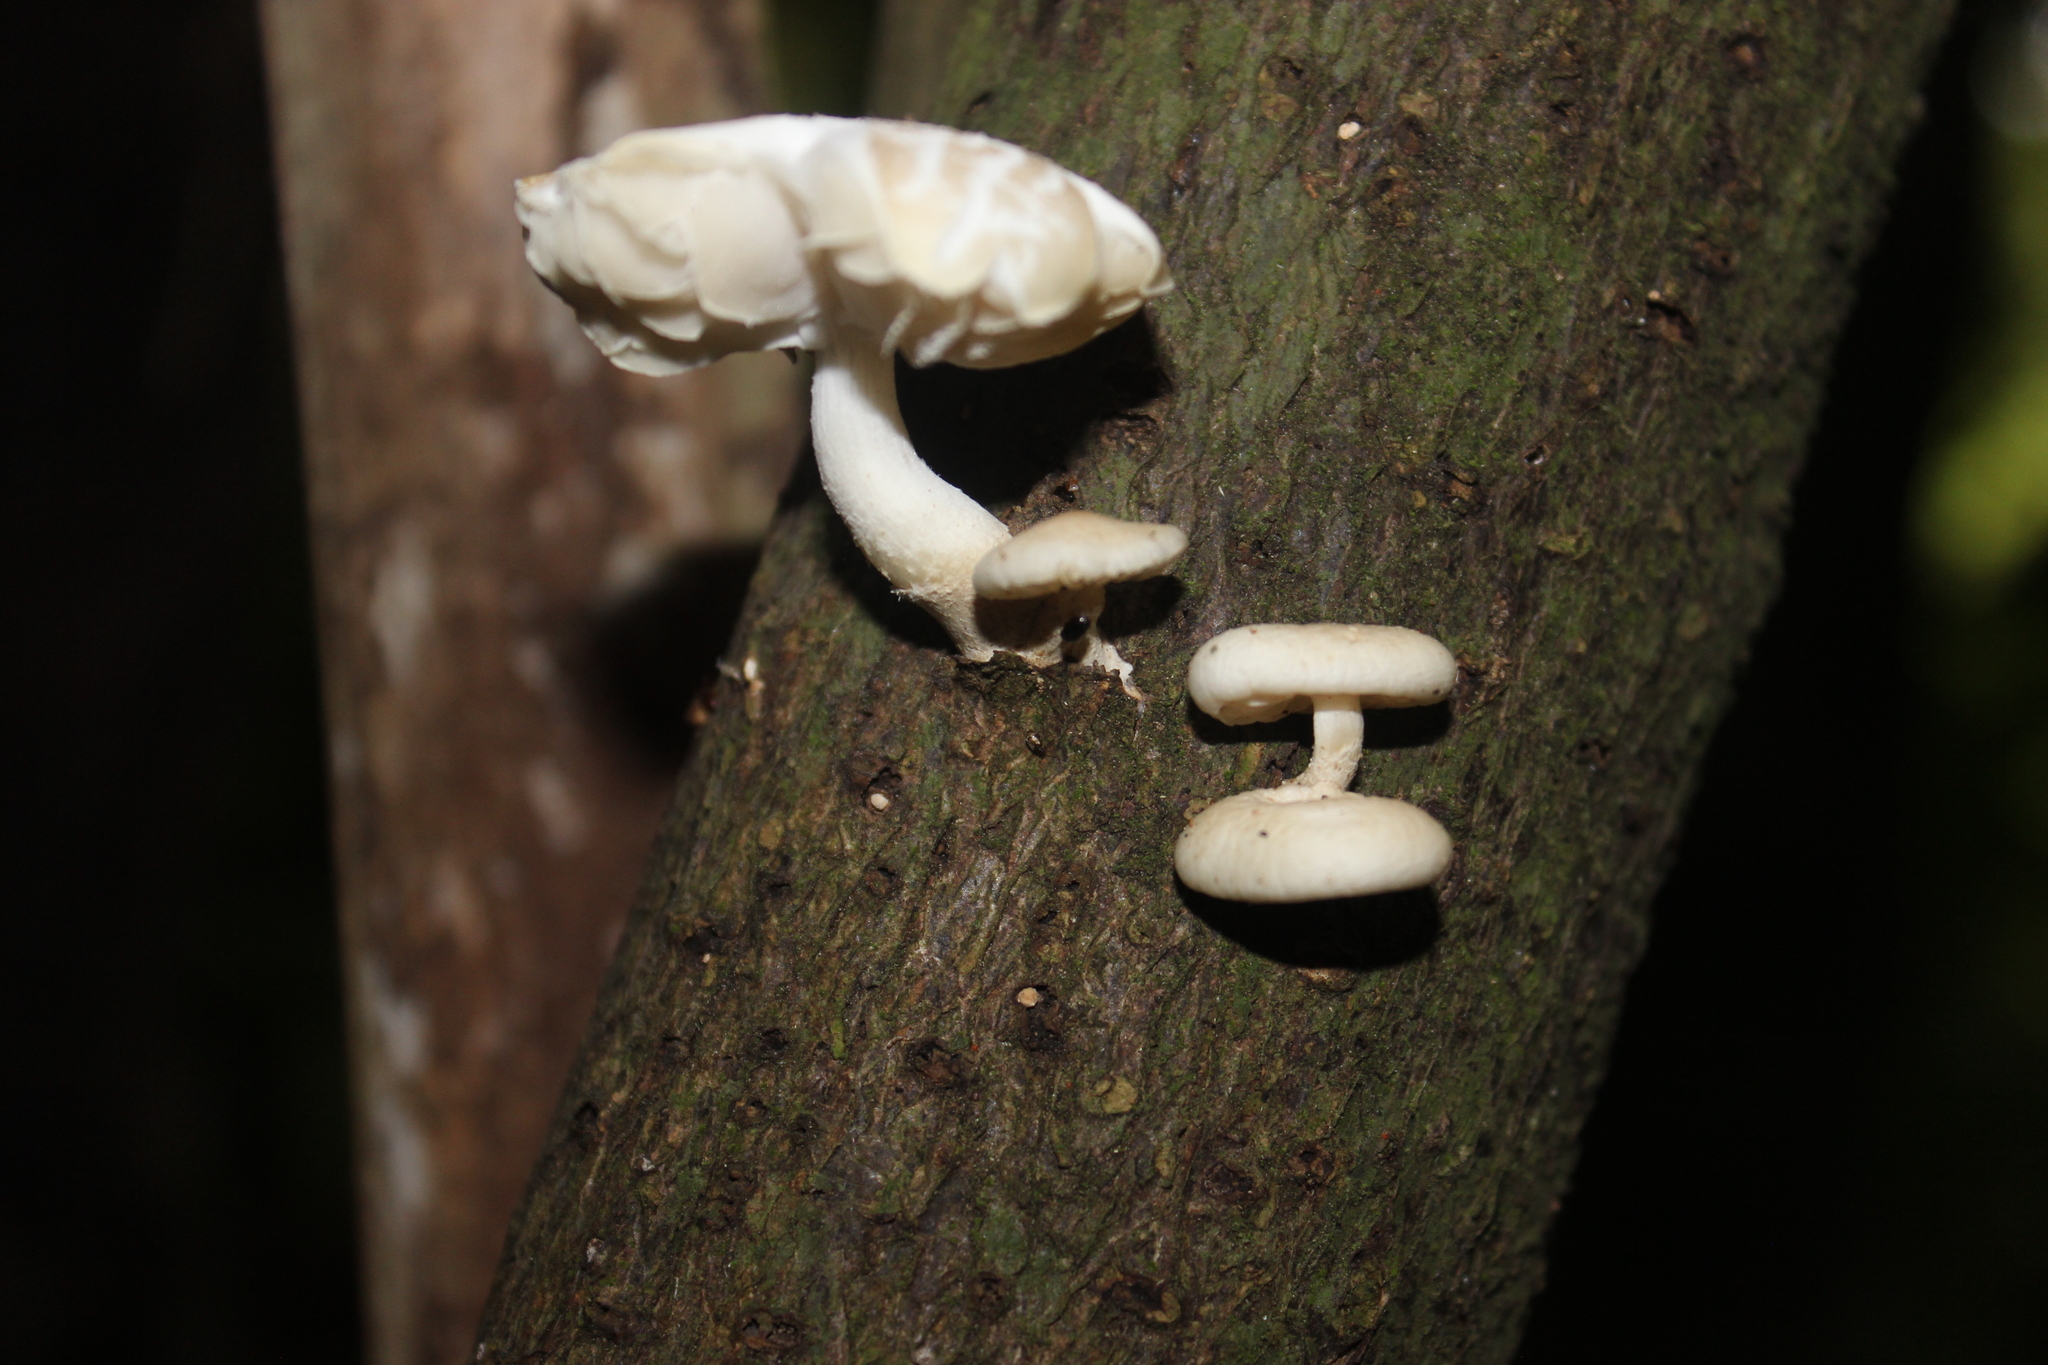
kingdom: Fungi
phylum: Basidiomycota
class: Agaricomycetes
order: Agaricales
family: Physalacriaceae
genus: Oudemansiella
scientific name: Oudemansiella australis
